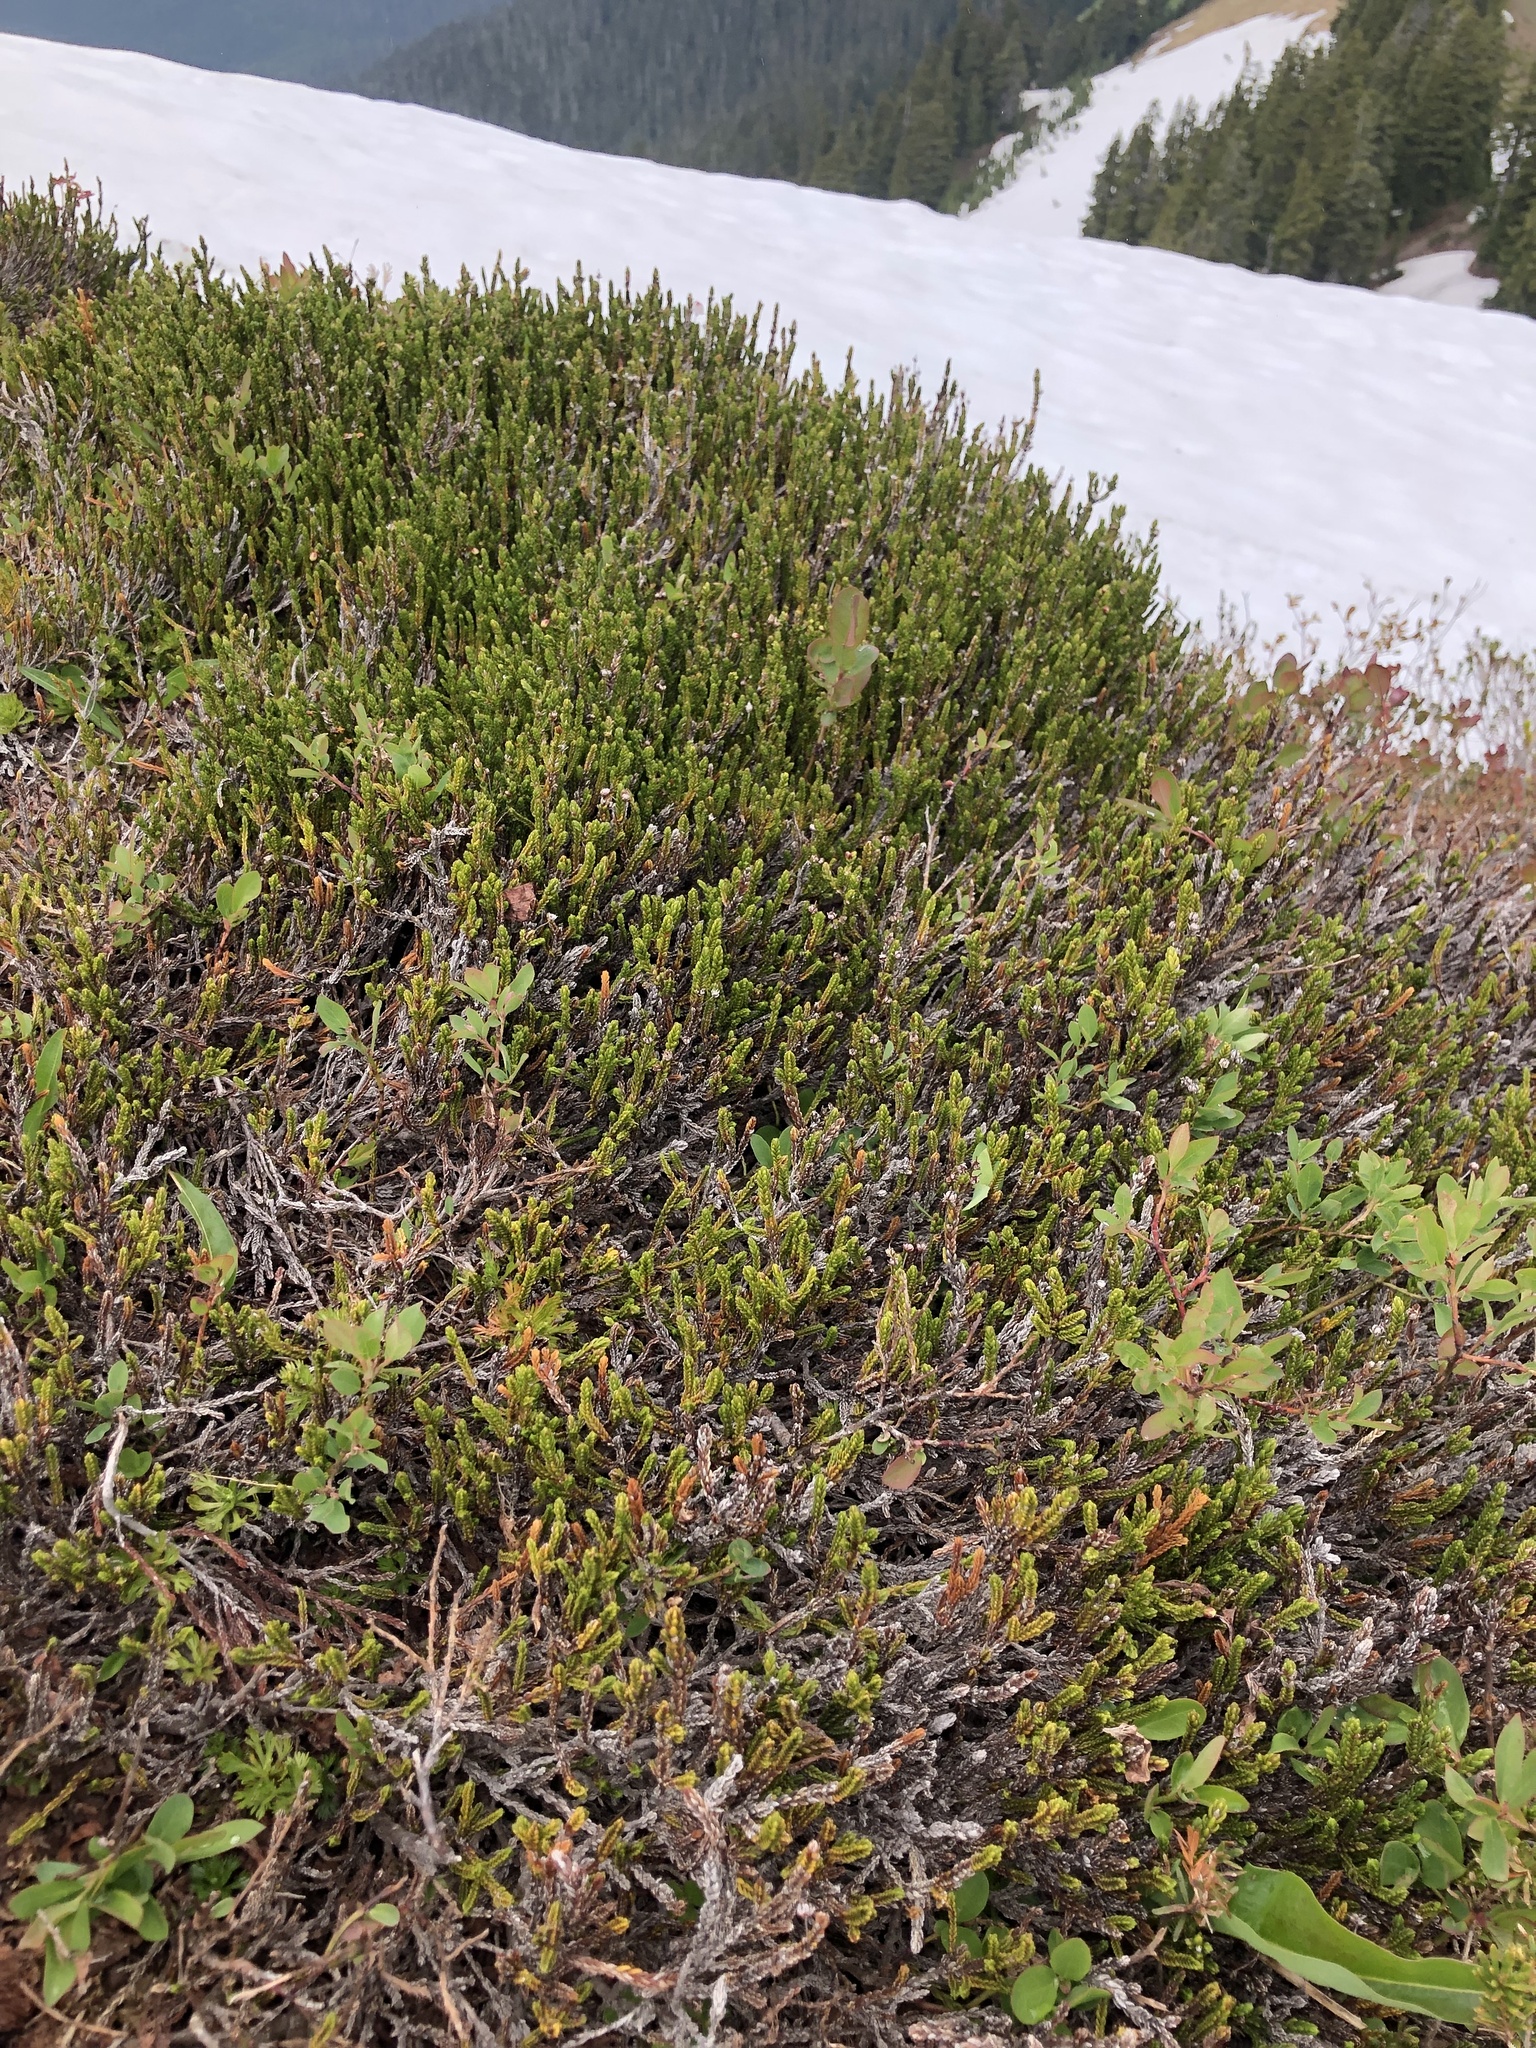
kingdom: Plantae
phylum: Tracheophyta
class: Magnoliopsida
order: Ericales
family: Ericaceae
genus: Cassiope
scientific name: Cassiope mertensiana
